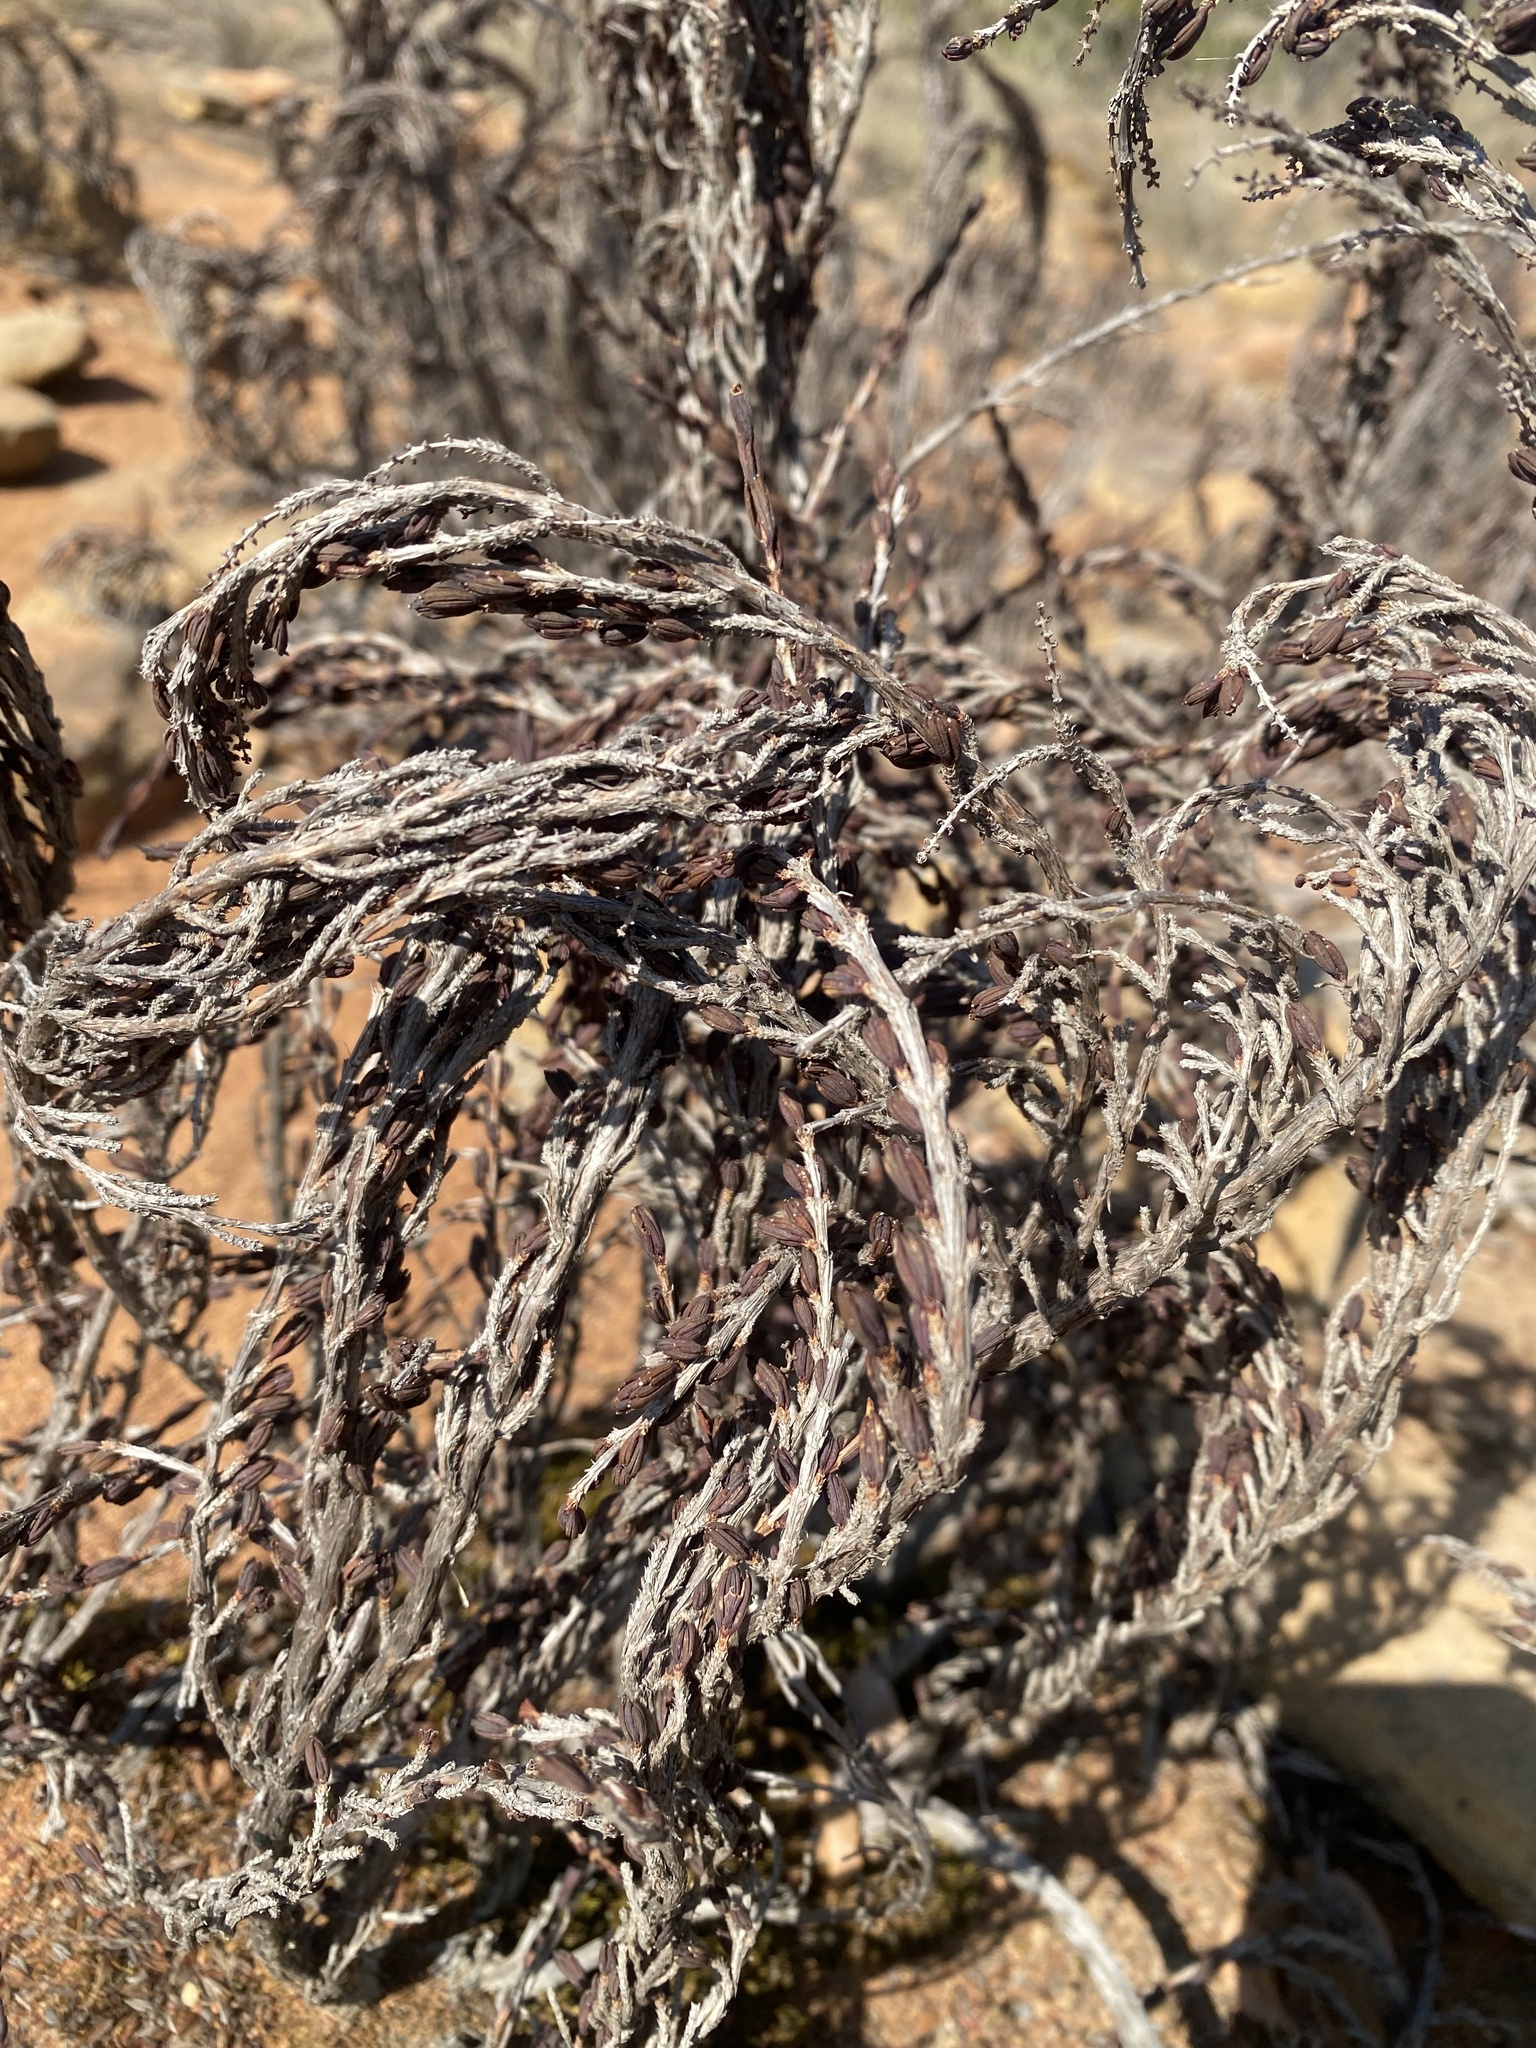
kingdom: Plantae
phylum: Tracheophyta
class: Magnoliopsida
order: Gunnerales
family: Myrothamnaceae
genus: Myrothamnus
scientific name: Myrothamnus flabellifolius
